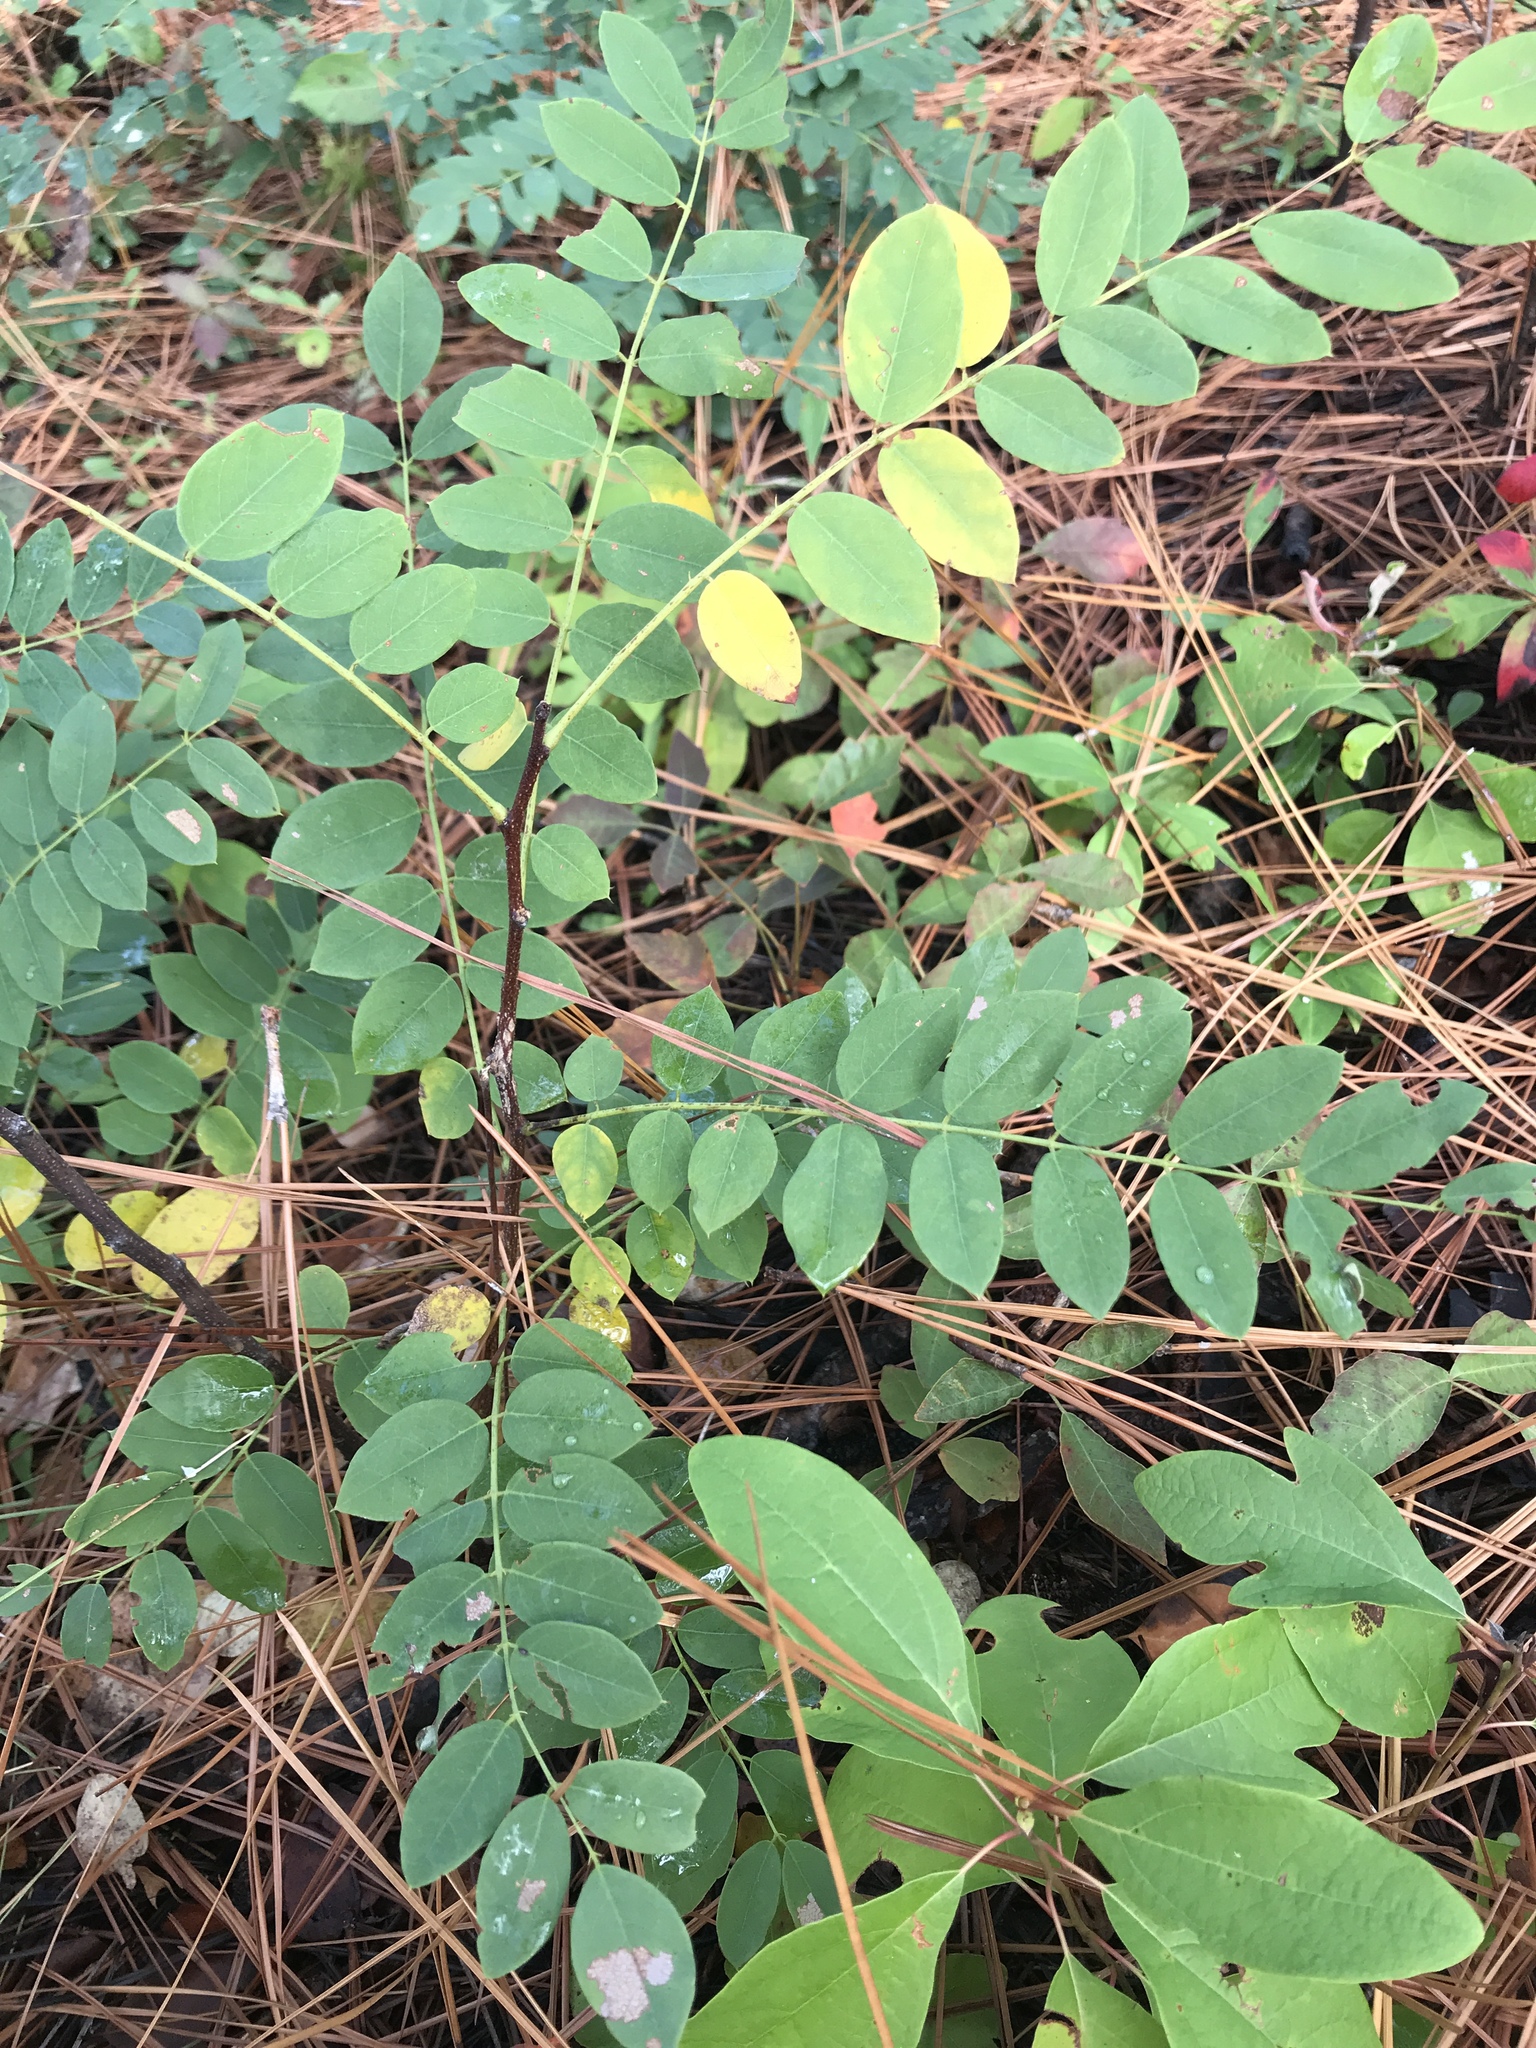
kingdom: Plantae
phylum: Tracheophyta
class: Magnoliopsida
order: Fabales
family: Fabaceae
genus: Robinia
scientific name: Robinia hispida
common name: Bristly locust
